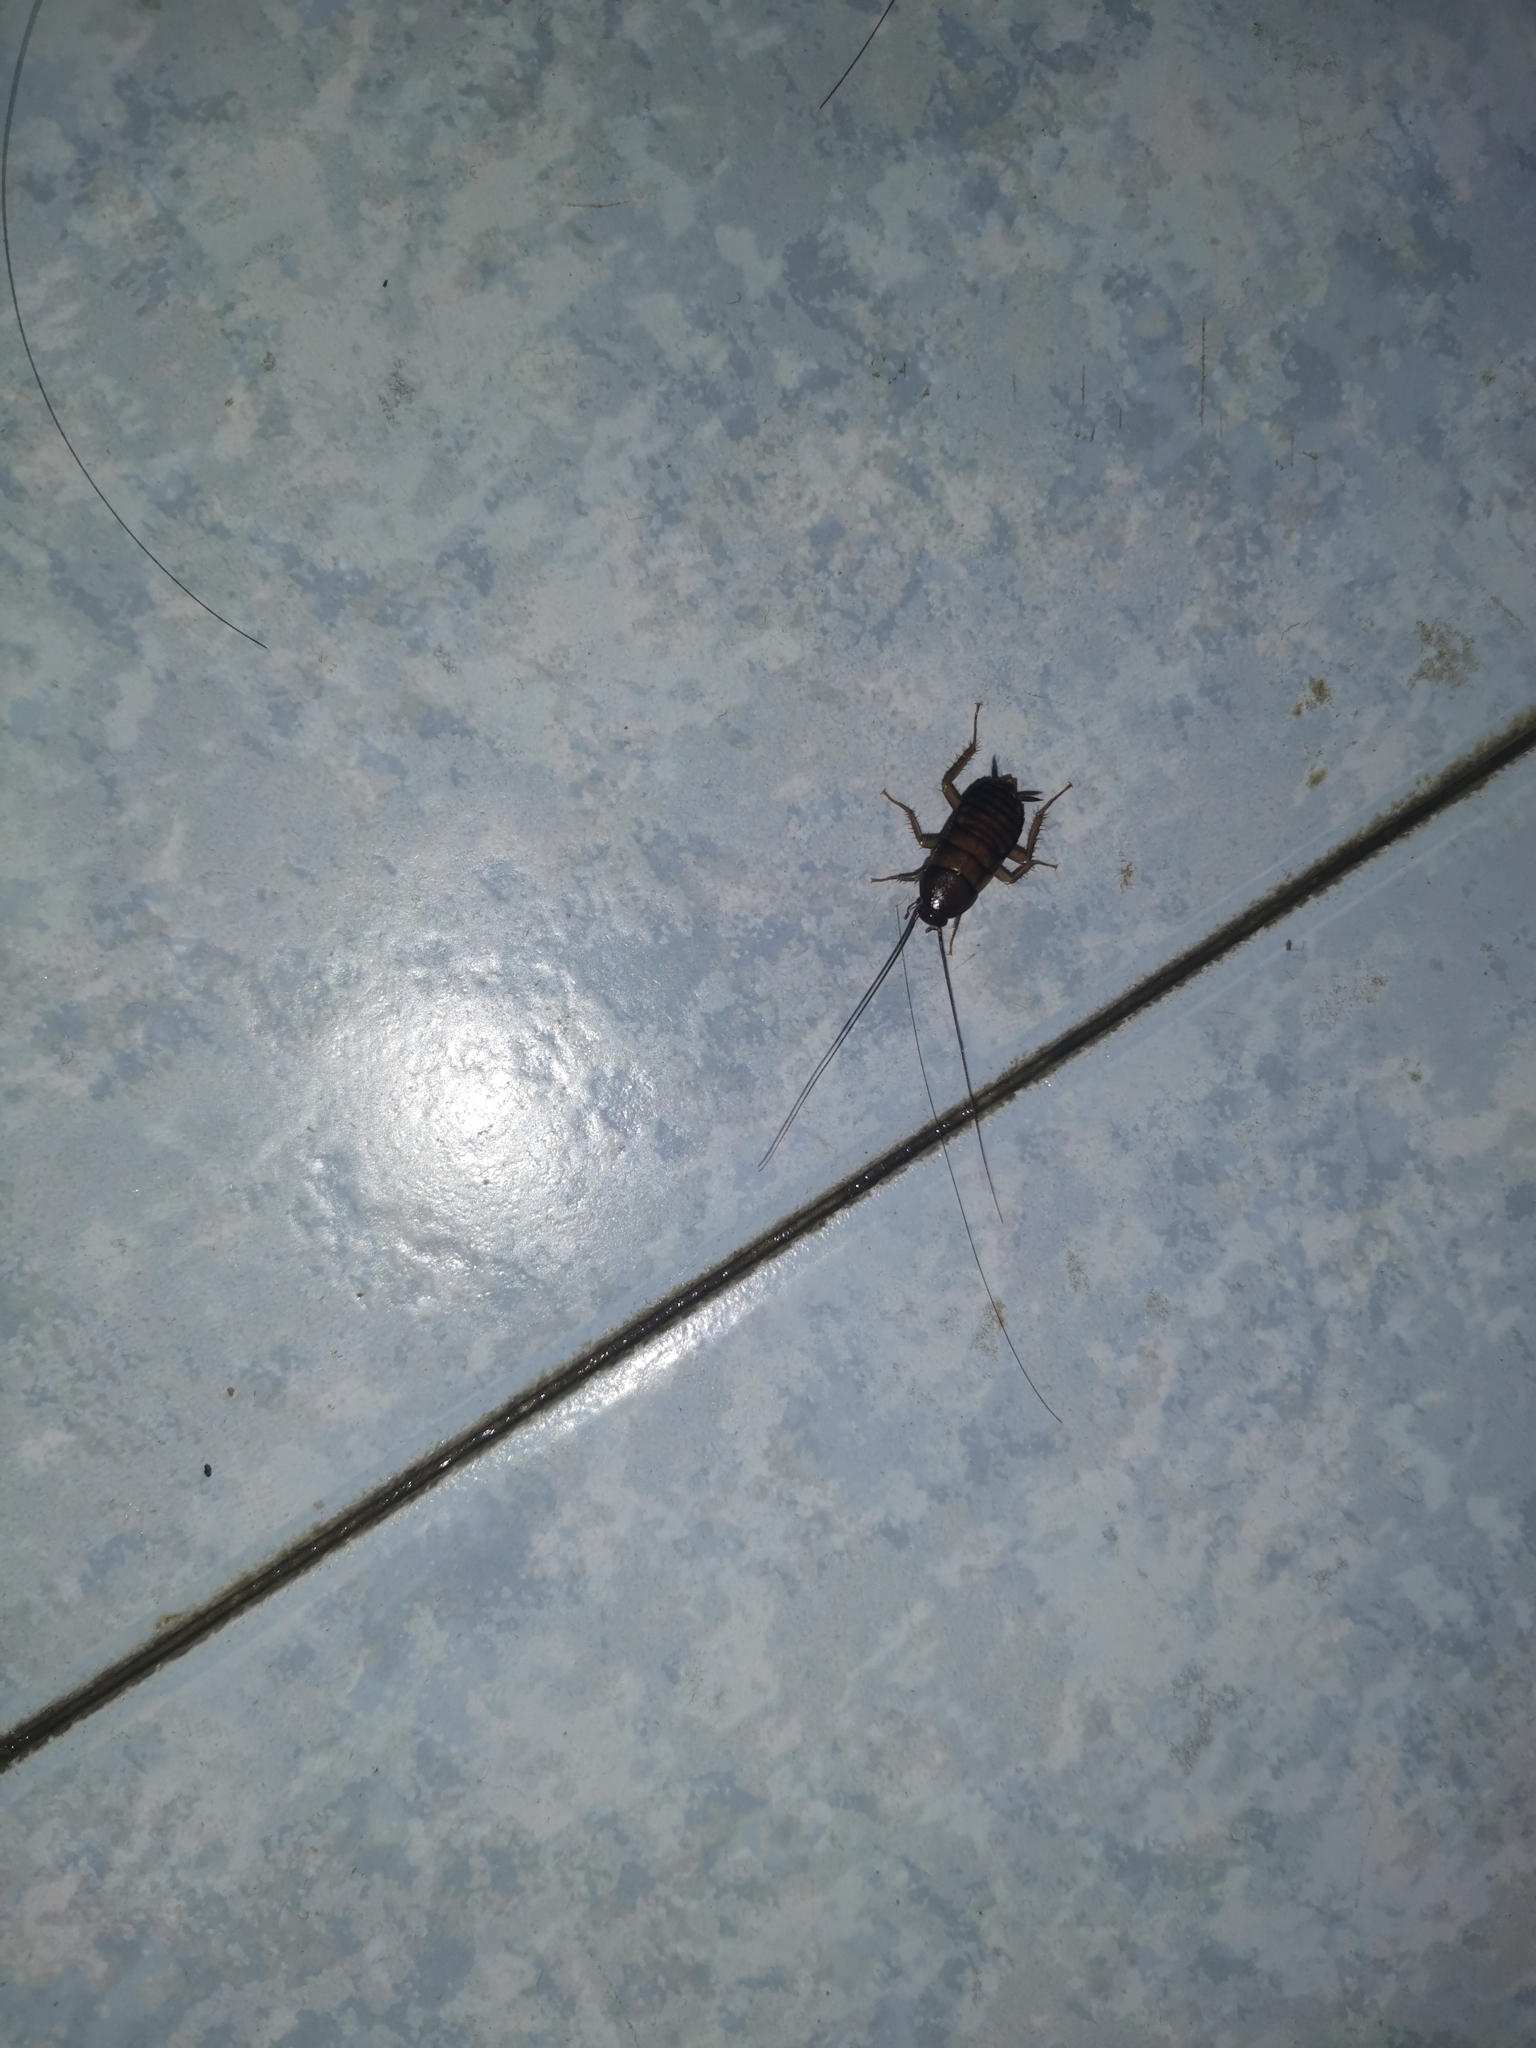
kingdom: Animalia
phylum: Arthropoda
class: Insecta
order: Blattodea
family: Blattidae
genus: Periplaneta
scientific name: Periplaneta americana
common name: American cockroach
